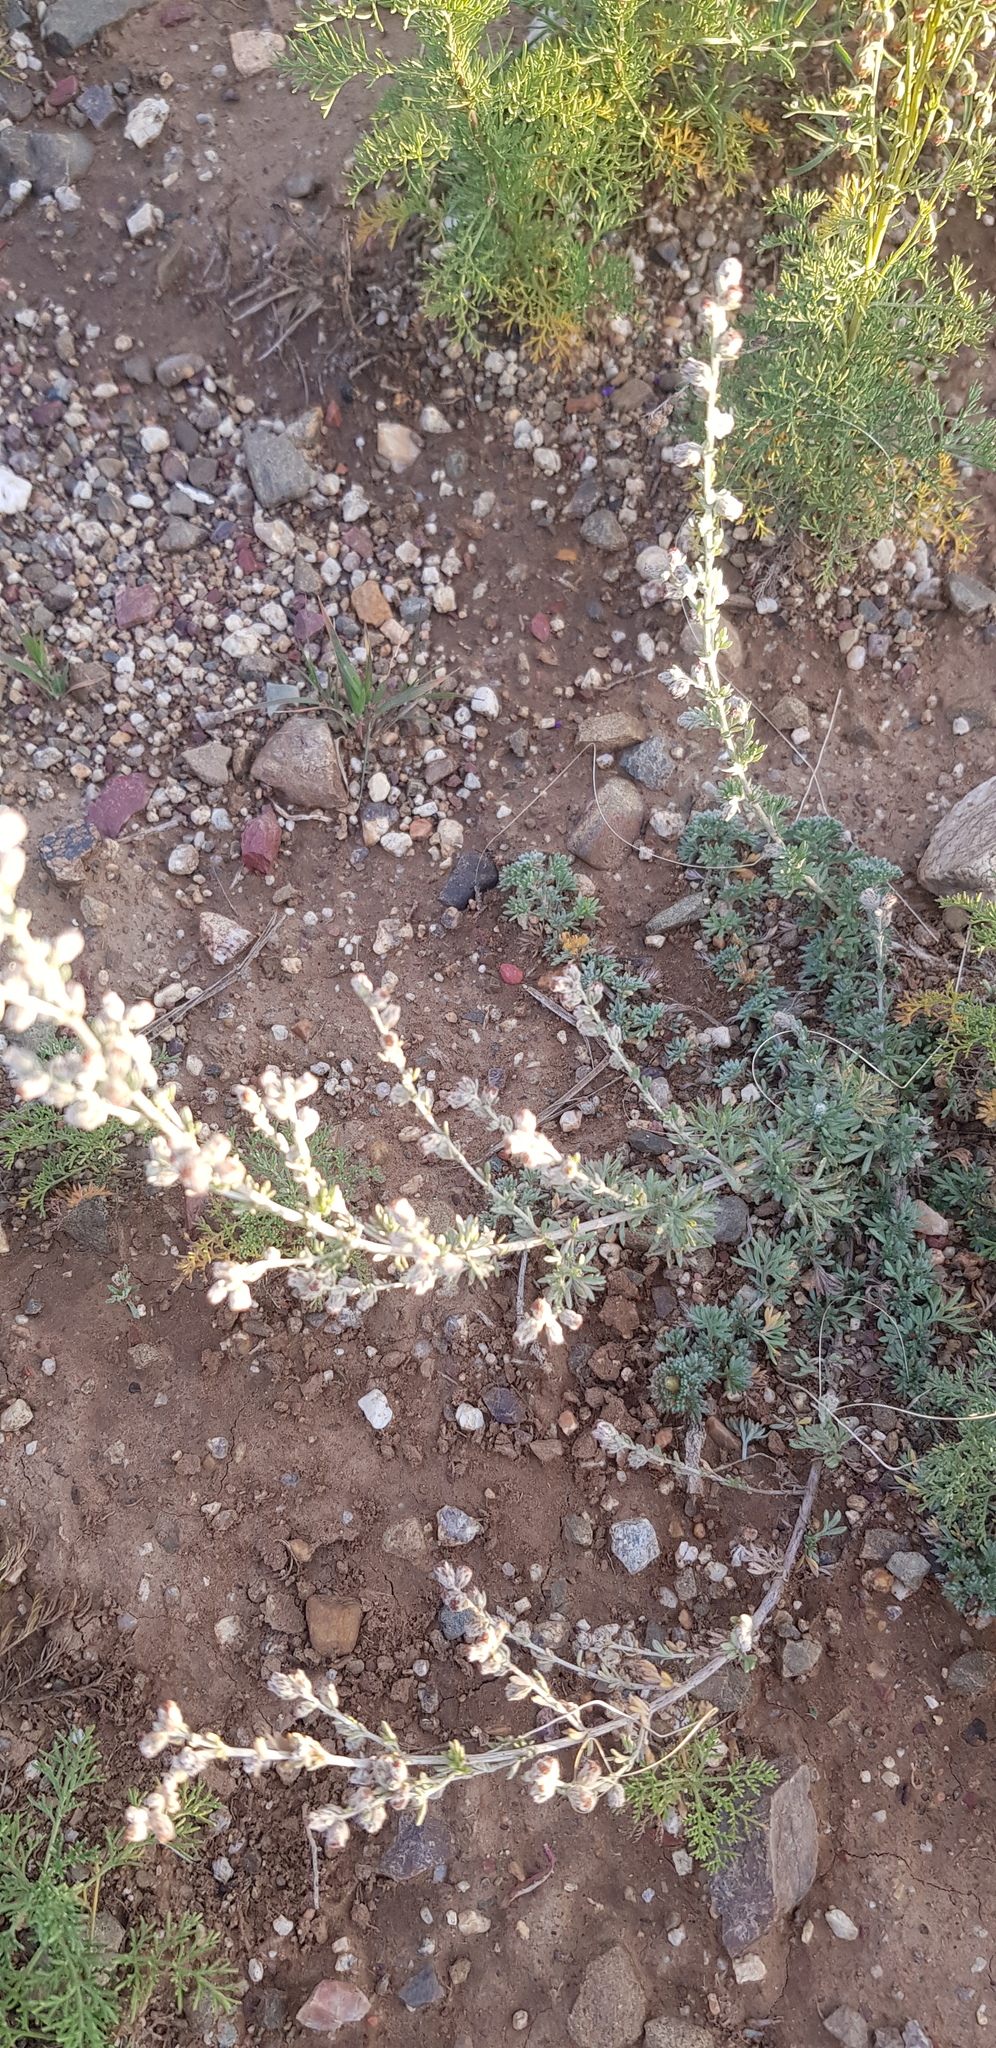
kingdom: Plantae
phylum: Tracheophyta
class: Magnoliopsida
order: Asterales
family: Asteraceae
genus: Artemisia
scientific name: Artemisia frigida
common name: Prairie sagewort
